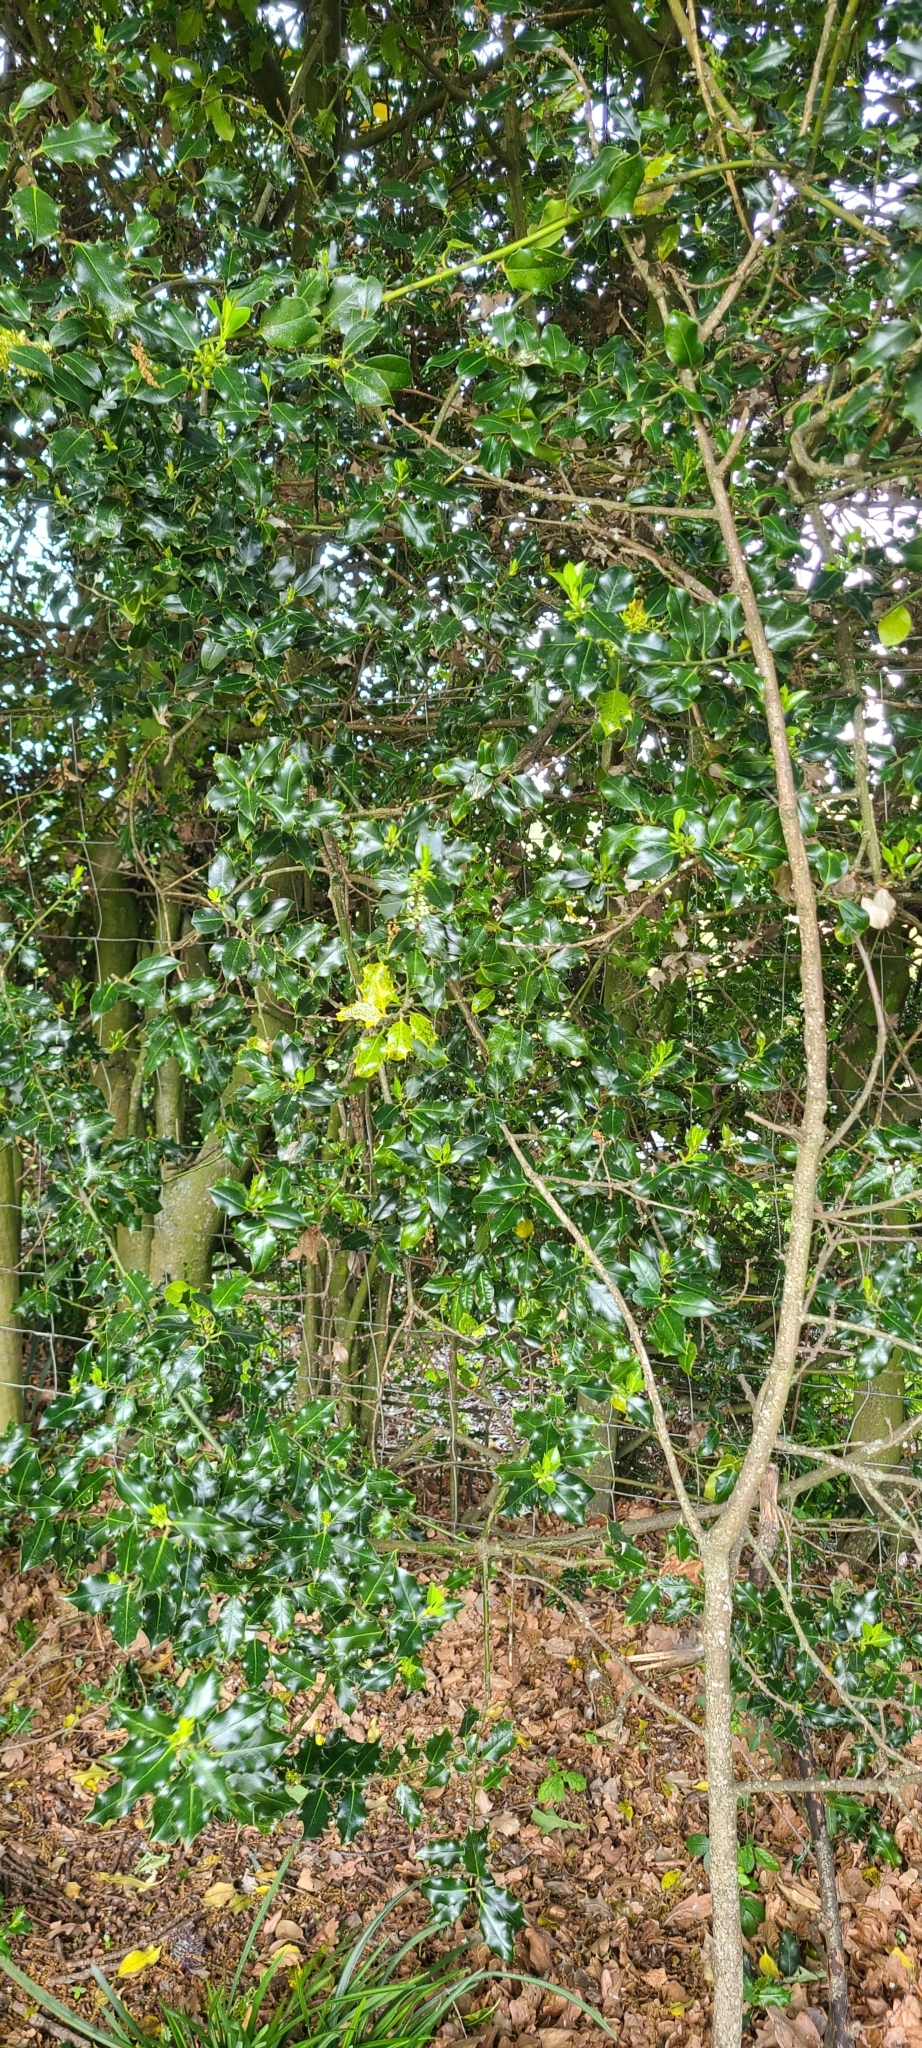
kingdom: Plantae
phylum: Tracheophyta
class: Magnoliopsida
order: Aquifoliales
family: Aquifoliaceae
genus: Ilex
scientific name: Ilex aquifolium
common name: English holly
